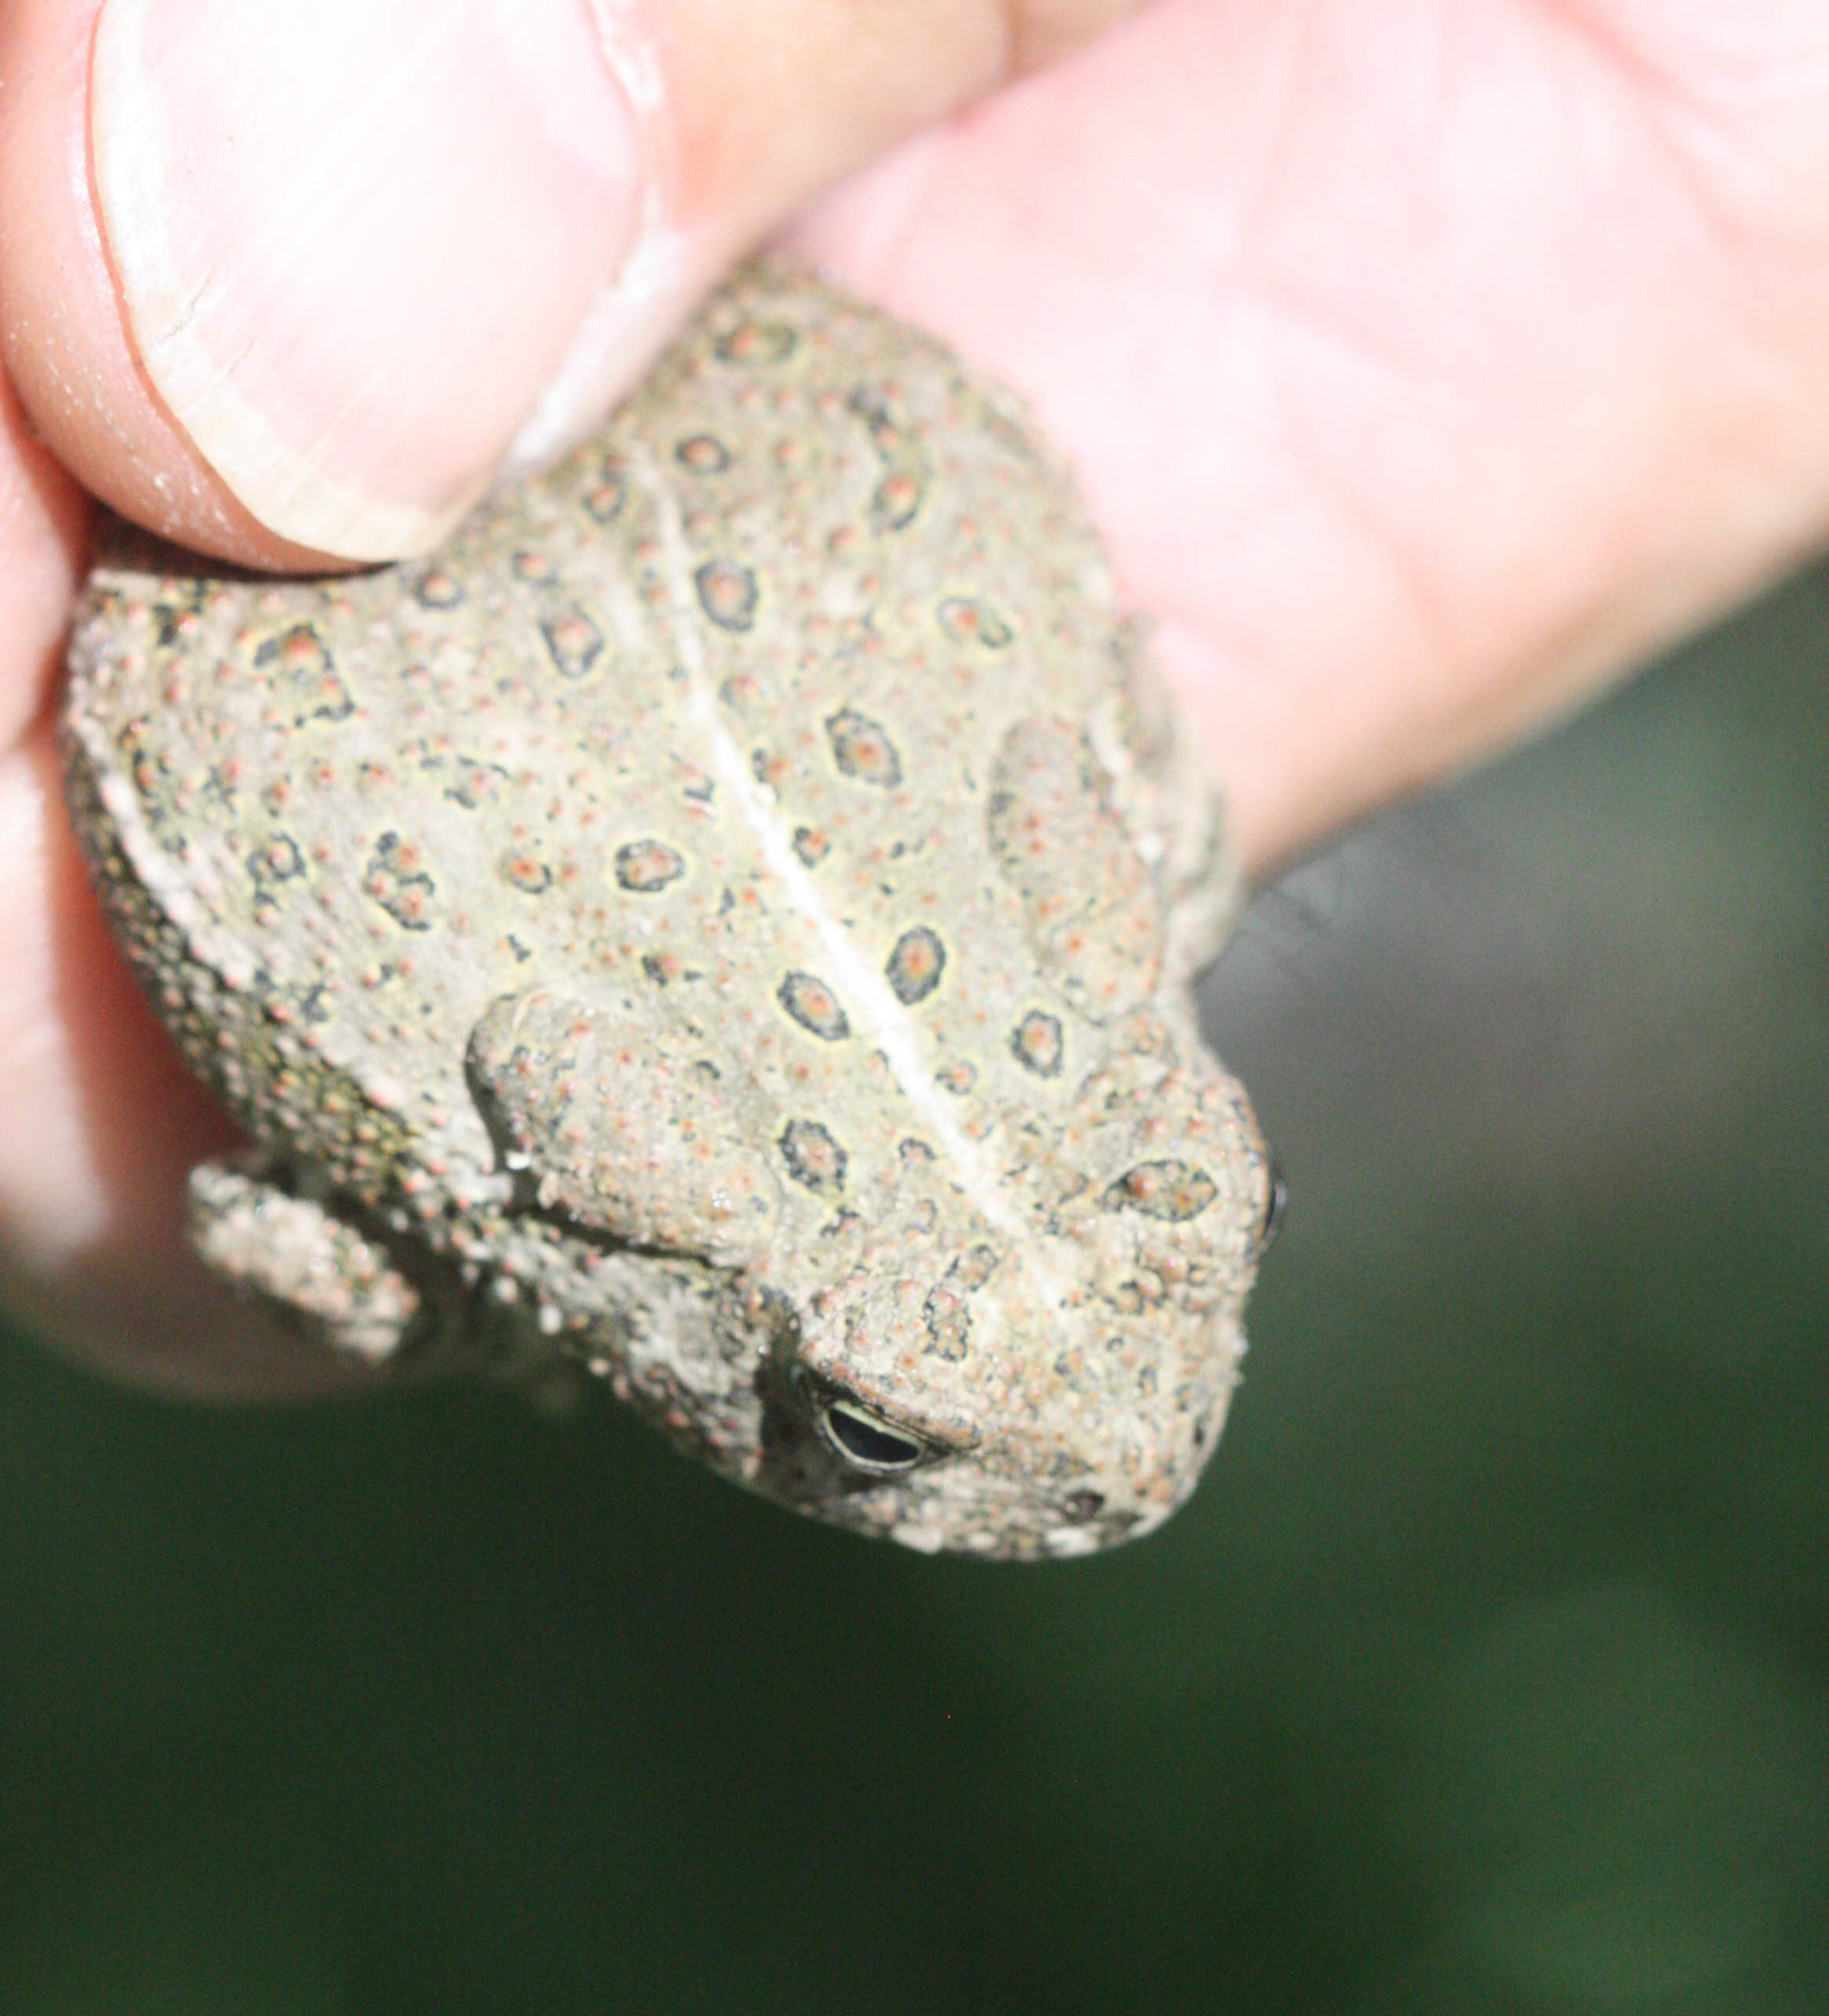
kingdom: Animalia
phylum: Chordata
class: Amphibia
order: Anura
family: Bufonidae
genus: Anaxyrus
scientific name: Anaxyrus woodhousii
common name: Woodhouse's toad
